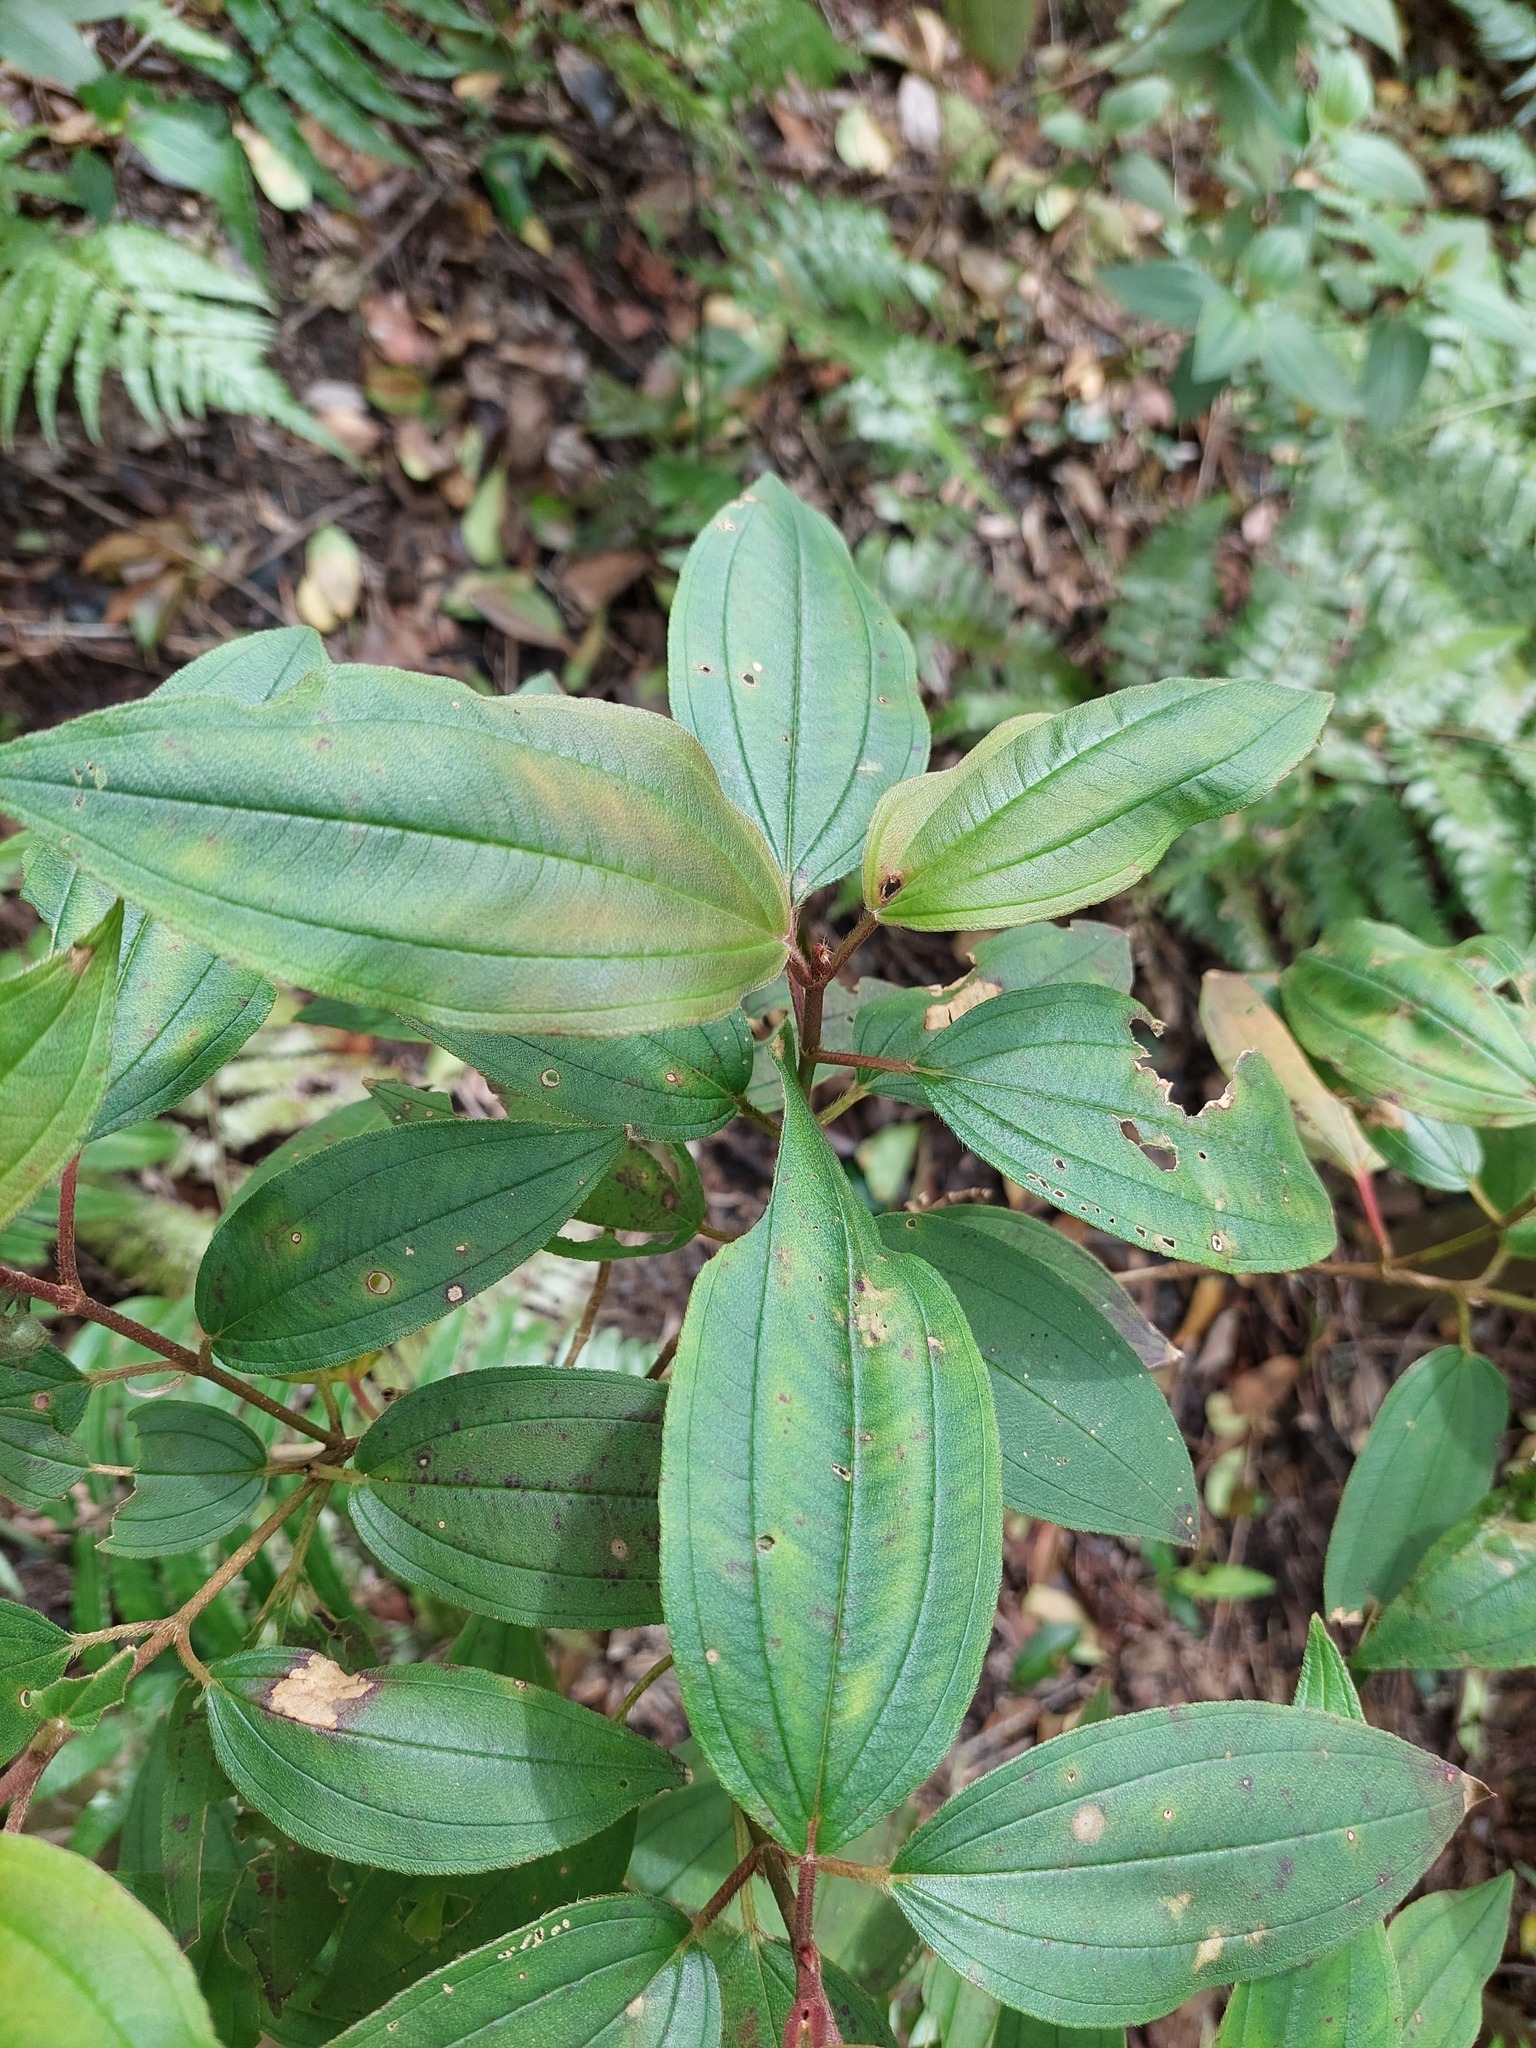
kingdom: Plantae
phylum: Tracheophyta
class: Magnoliopsida
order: Myrtales
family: Melastomataceae
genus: Melastoma
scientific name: Melastoma malabathricum
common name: Indian-rhododendron
